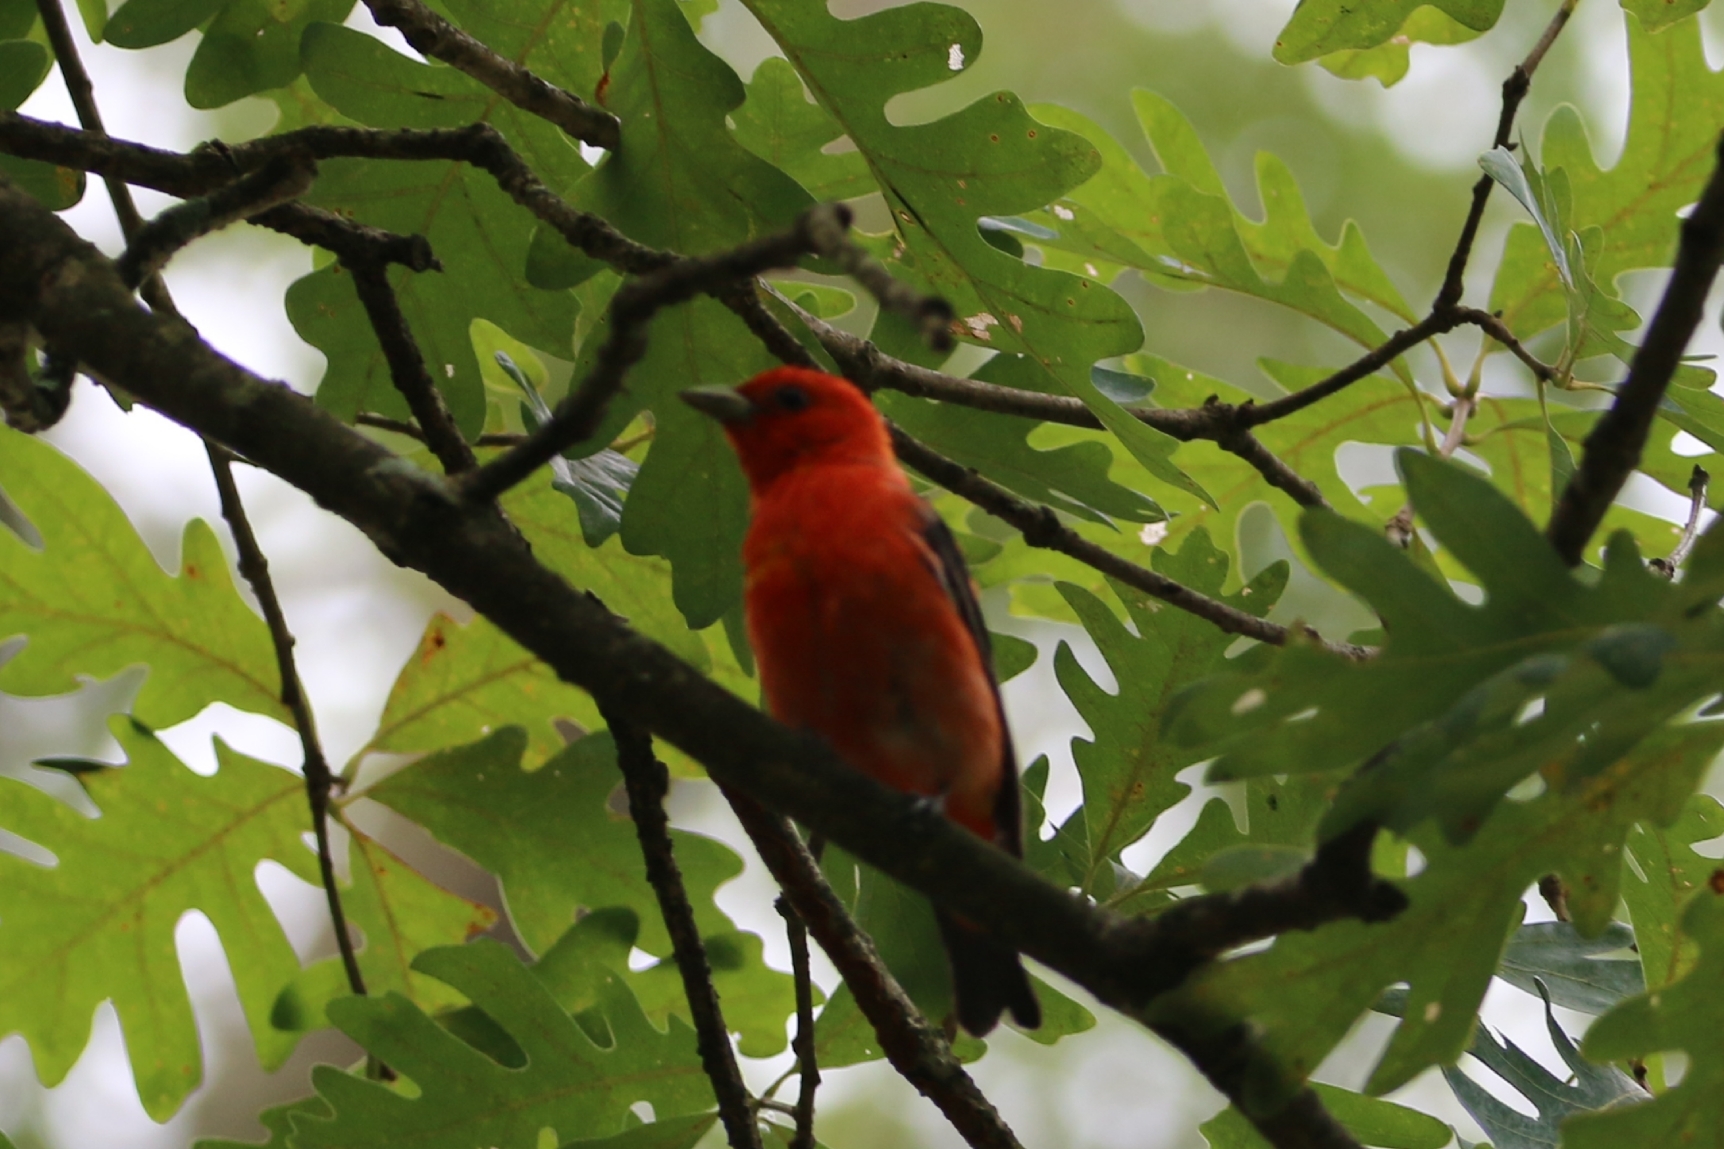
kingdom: Animalia
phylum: Chordata
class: Aves
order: Passeriformes
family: Cardinalidae
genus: Piranga
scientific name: Piranga olivacea
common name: Scarlet tanager
